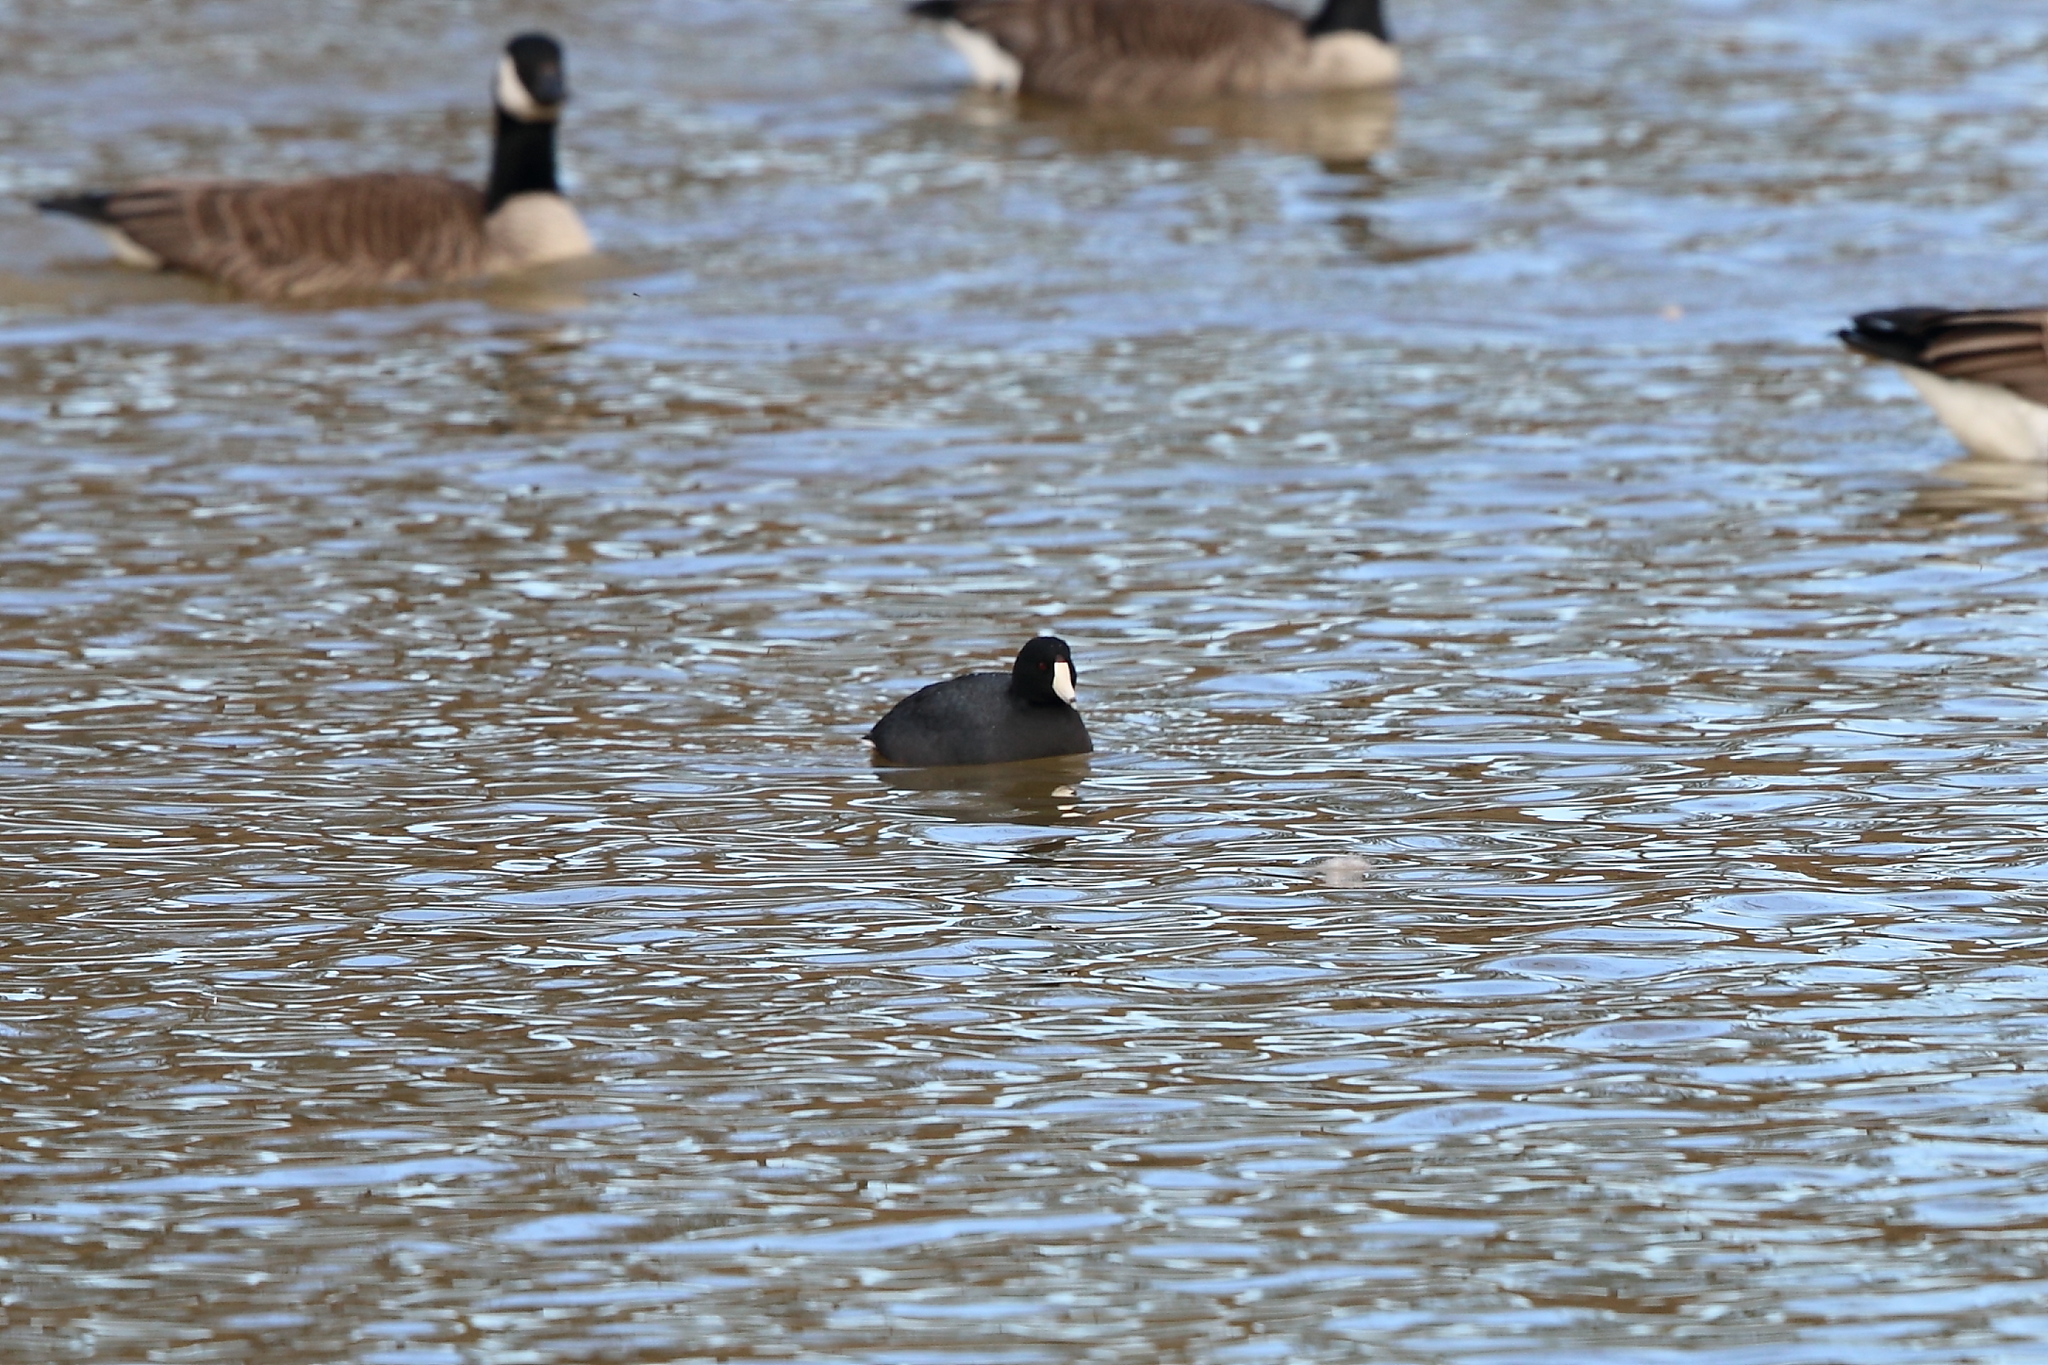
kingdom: Animalia
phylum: Chordata
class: Aves
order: Anseriformes
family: Anatidae
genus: Branta
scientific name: Branta canadensis
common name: Canada goose
